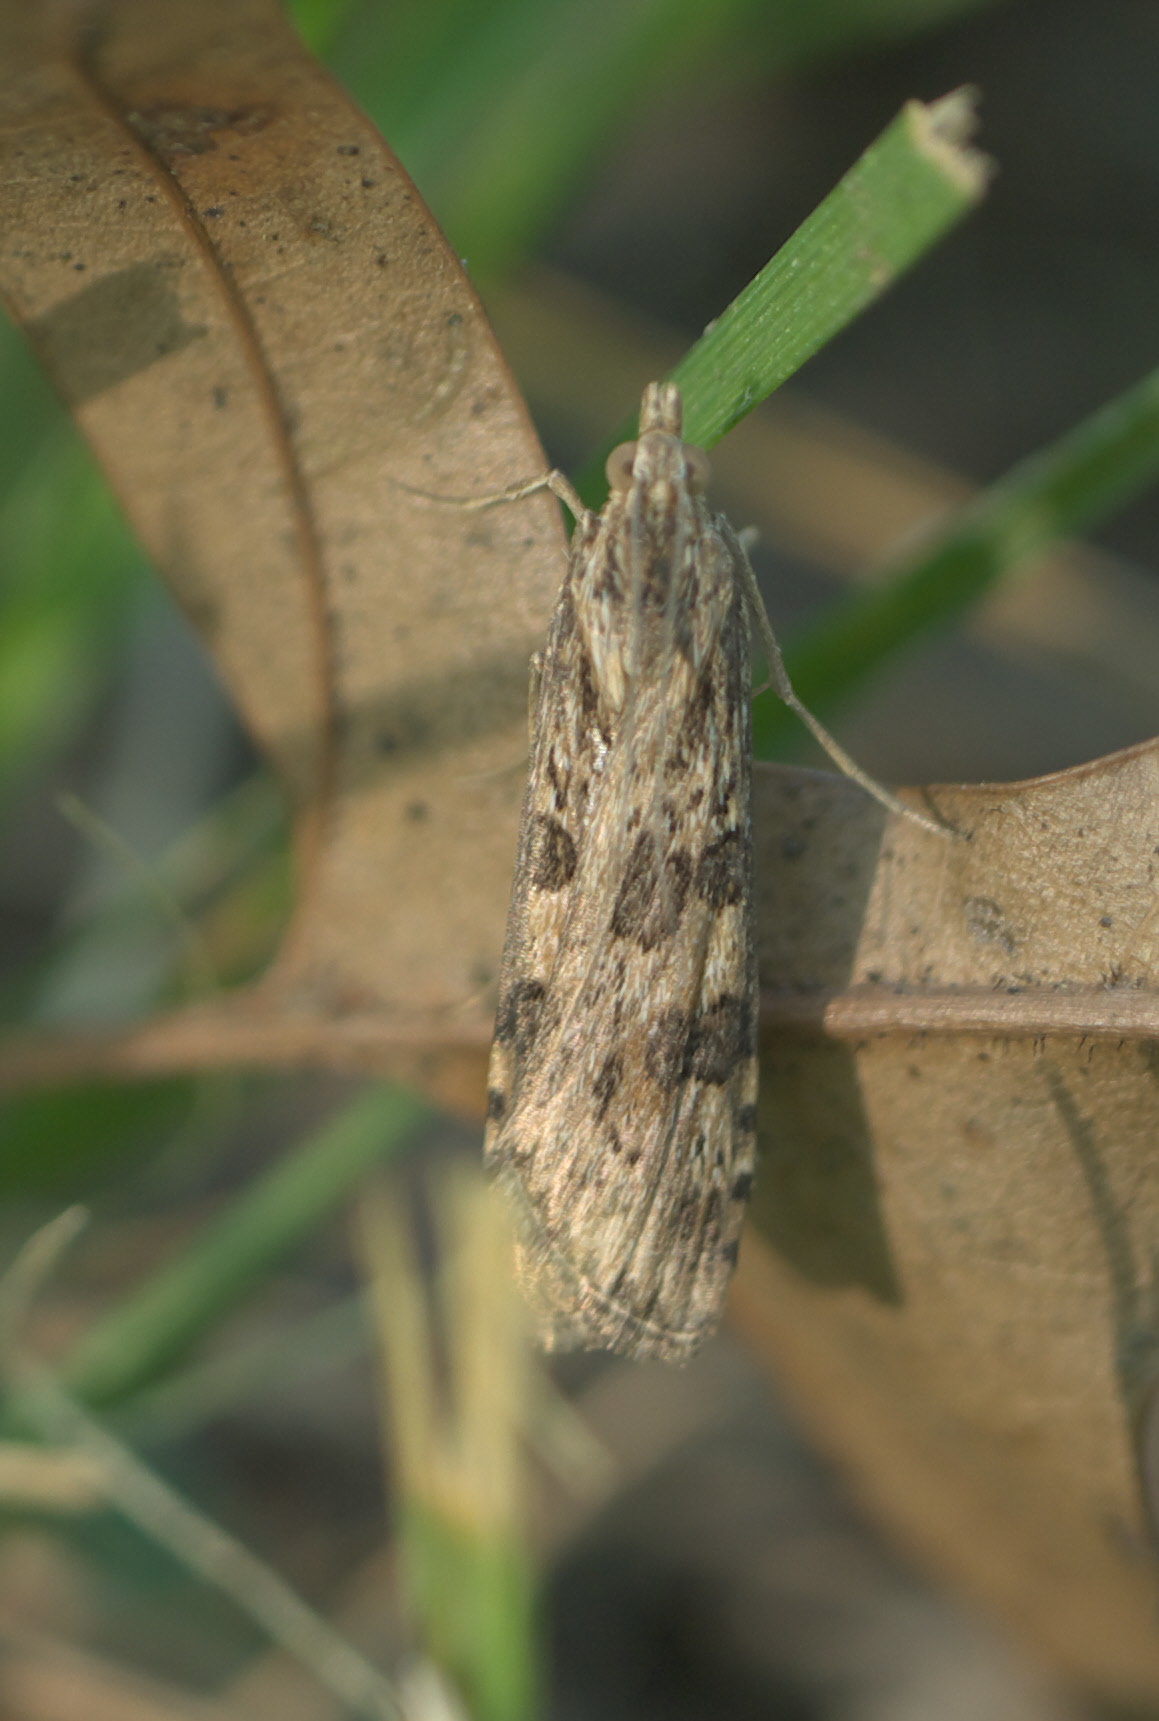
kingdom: Animalia
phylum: Arthropoda
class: Insecta
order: Lepidoptera
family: Crambidae
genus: Nomophila
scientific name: Nomophila nearctica
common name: American rush veneer
